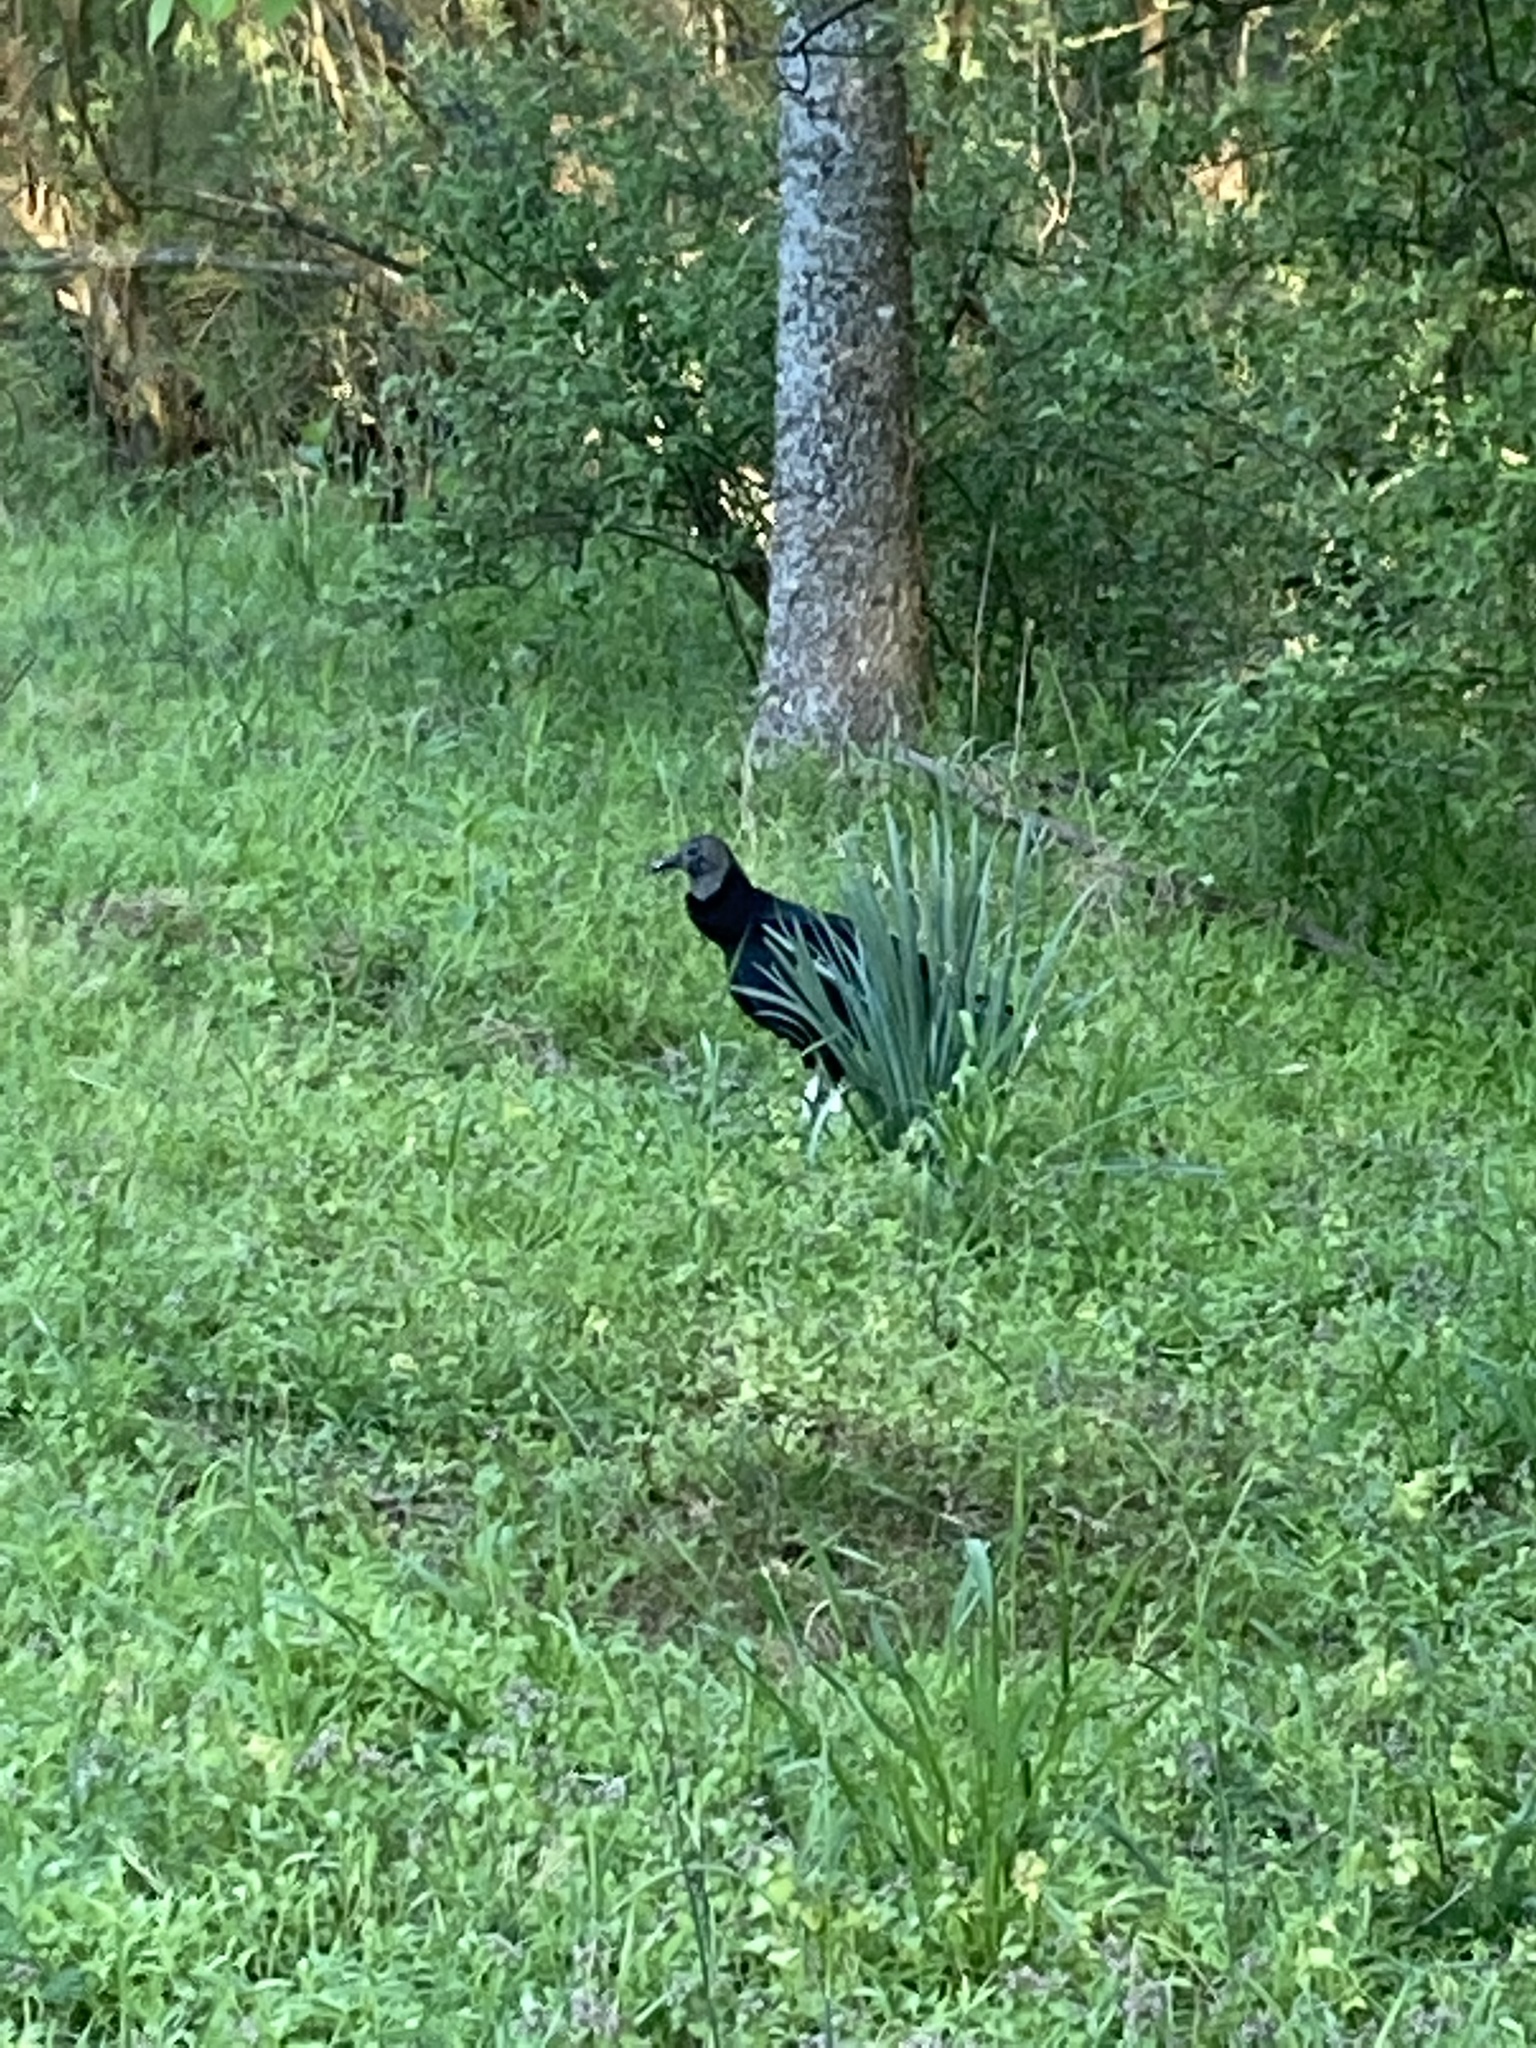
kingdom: Animalia
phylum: Chordata
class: Aves
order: Accipitriformes
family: Cathartidae
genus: Coragyps
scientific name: Coragyps atratus
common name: Black vulture
